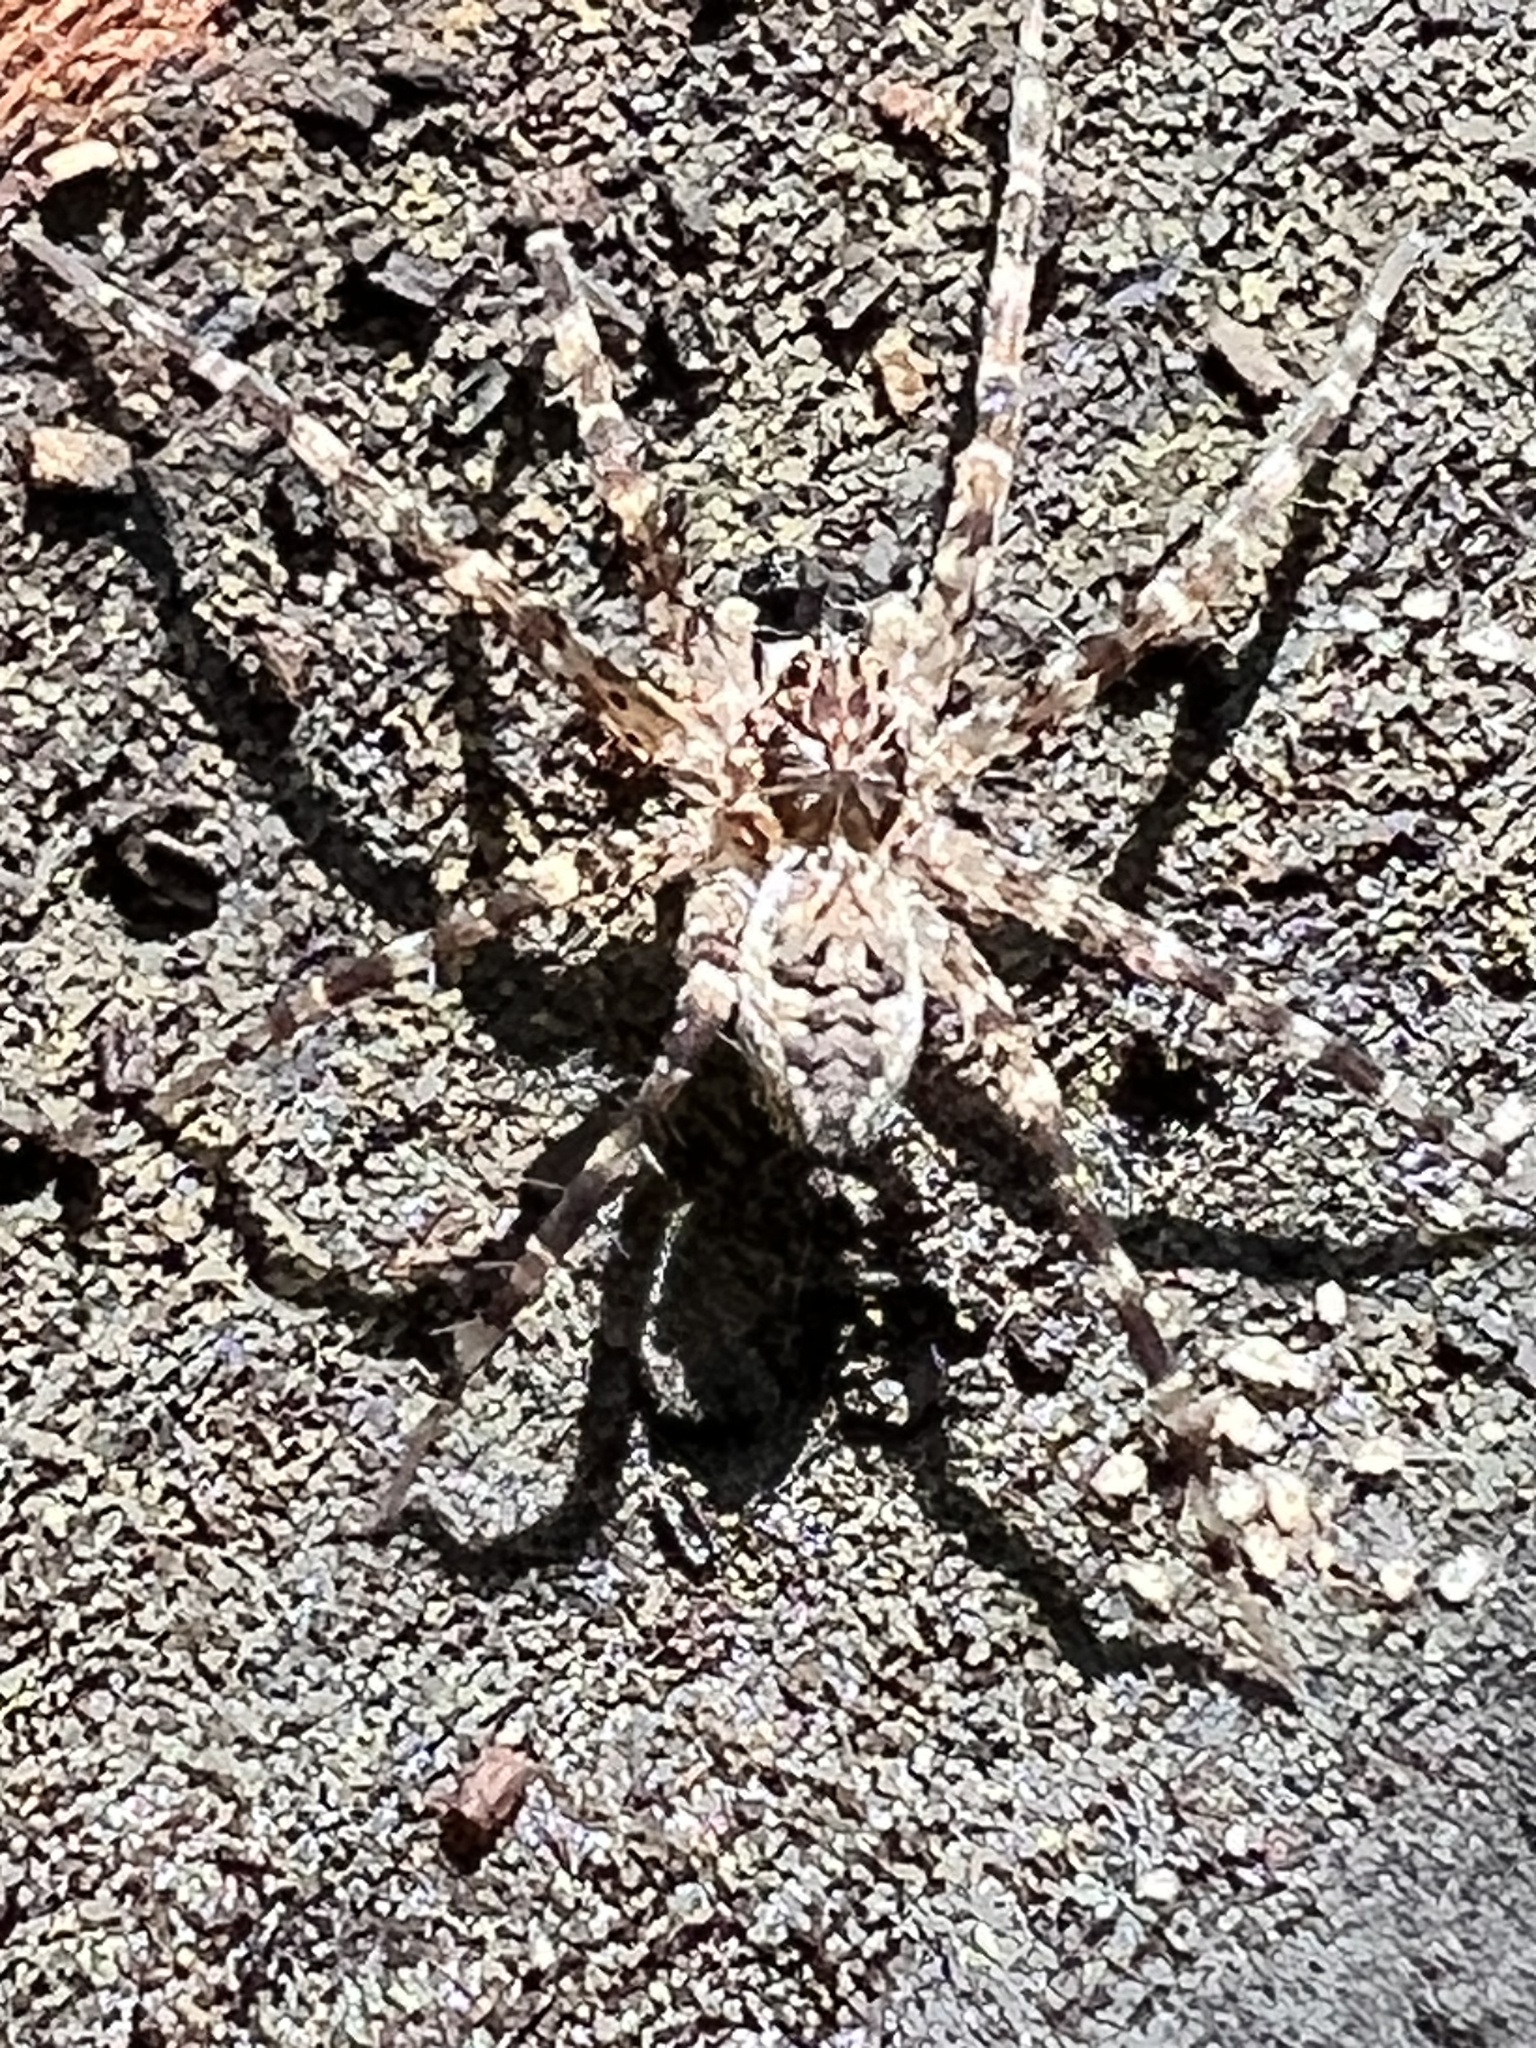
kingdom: Animalia
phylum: Arthropoda
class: Arachnida
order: Araneae
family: Pisauridae
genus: Dolomedes
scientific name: Dolomedes tenebrosus
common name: Dark fishing spider
